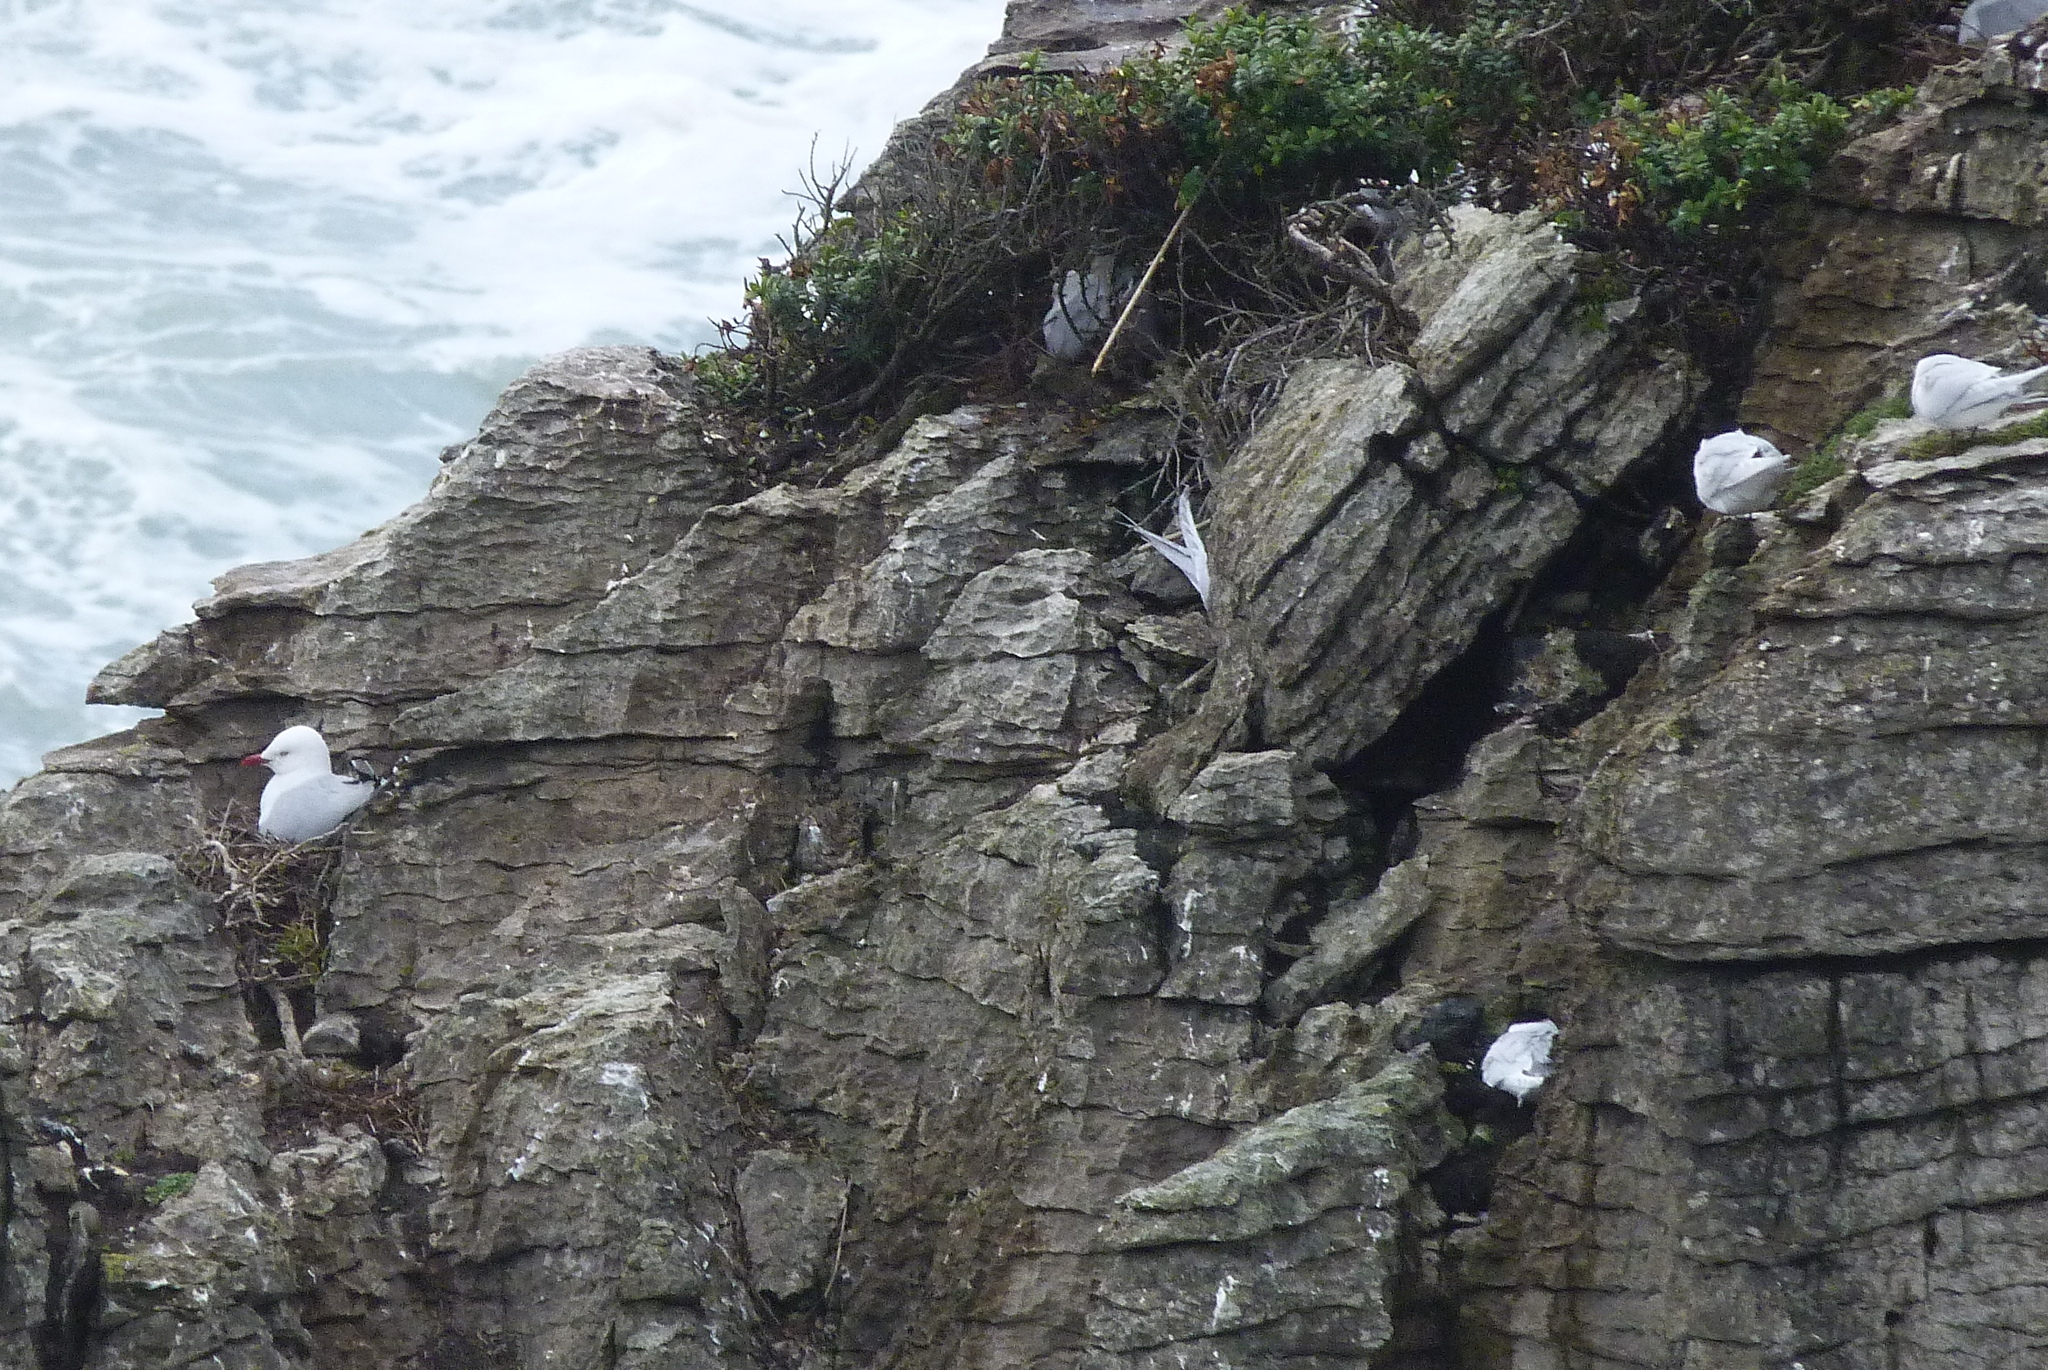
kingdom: Animalia
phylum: Chordata
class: Aves
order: Charadriiformes
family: Laridae
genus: Chroicocephalus
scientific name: Chroicocephalus novaehollandiae
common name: Silver gull
